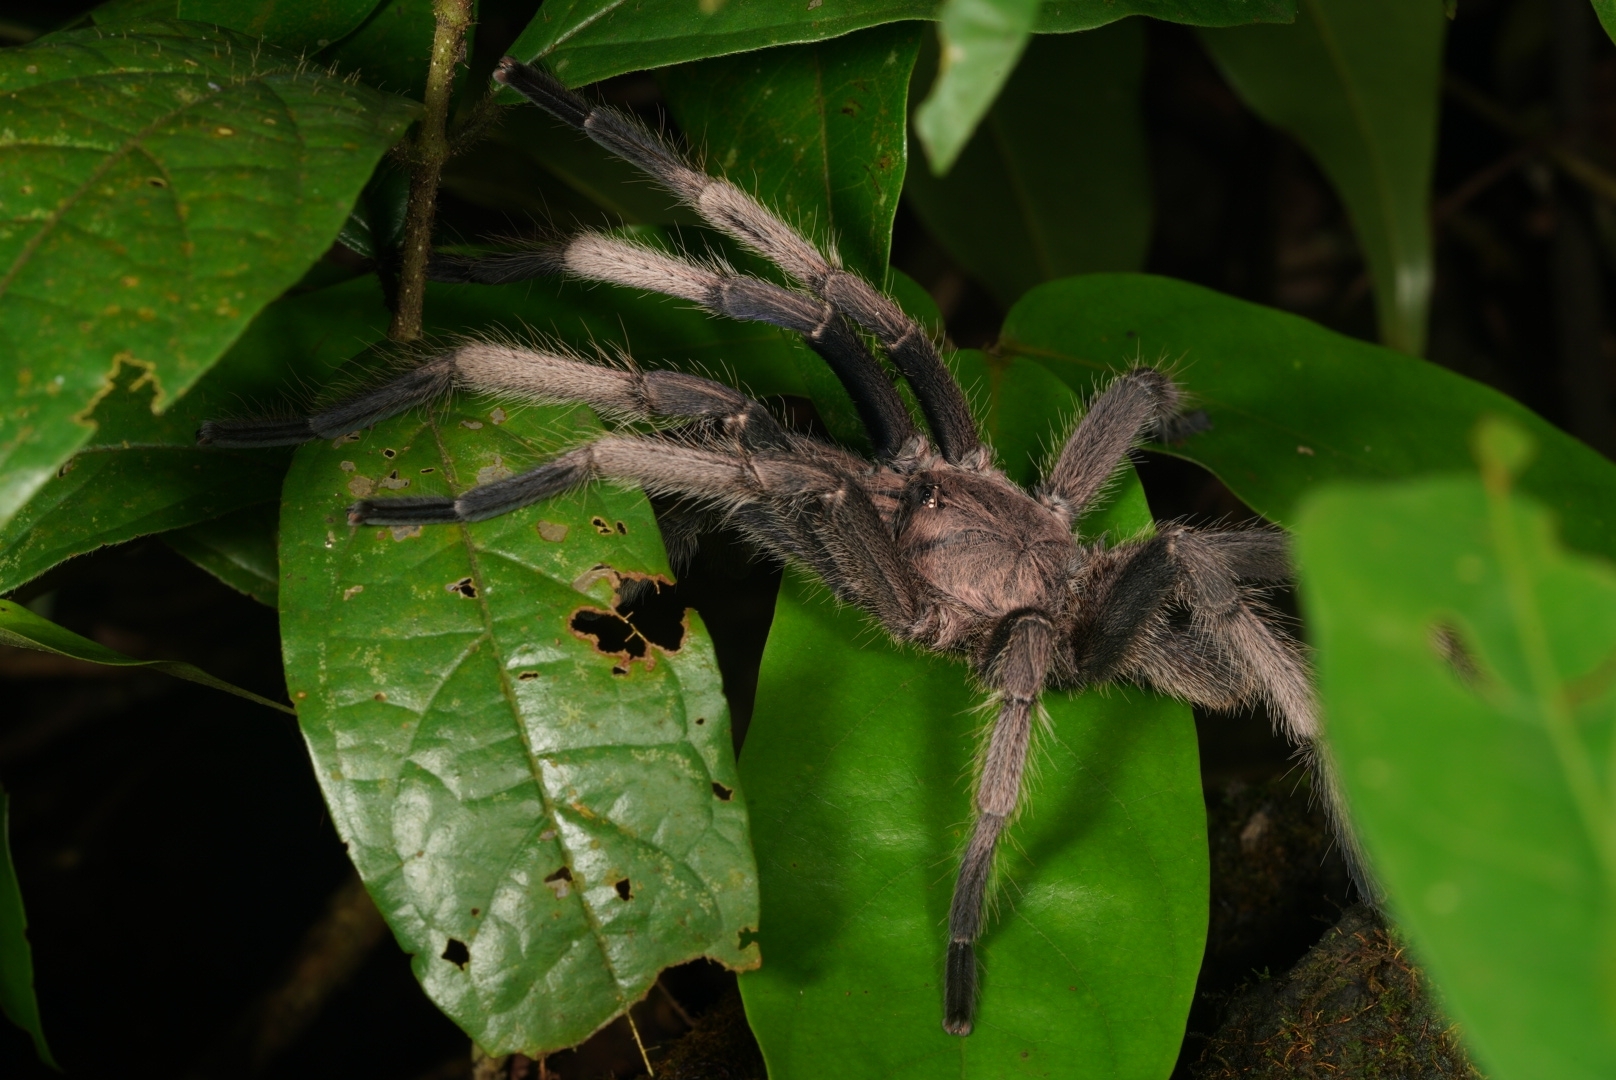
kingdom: Animalia
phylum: Arthropoda
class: Arachnida
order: Araneae
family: Theraphosidae
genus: Chilobrachys
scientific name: Chilobrachys dyscolus
